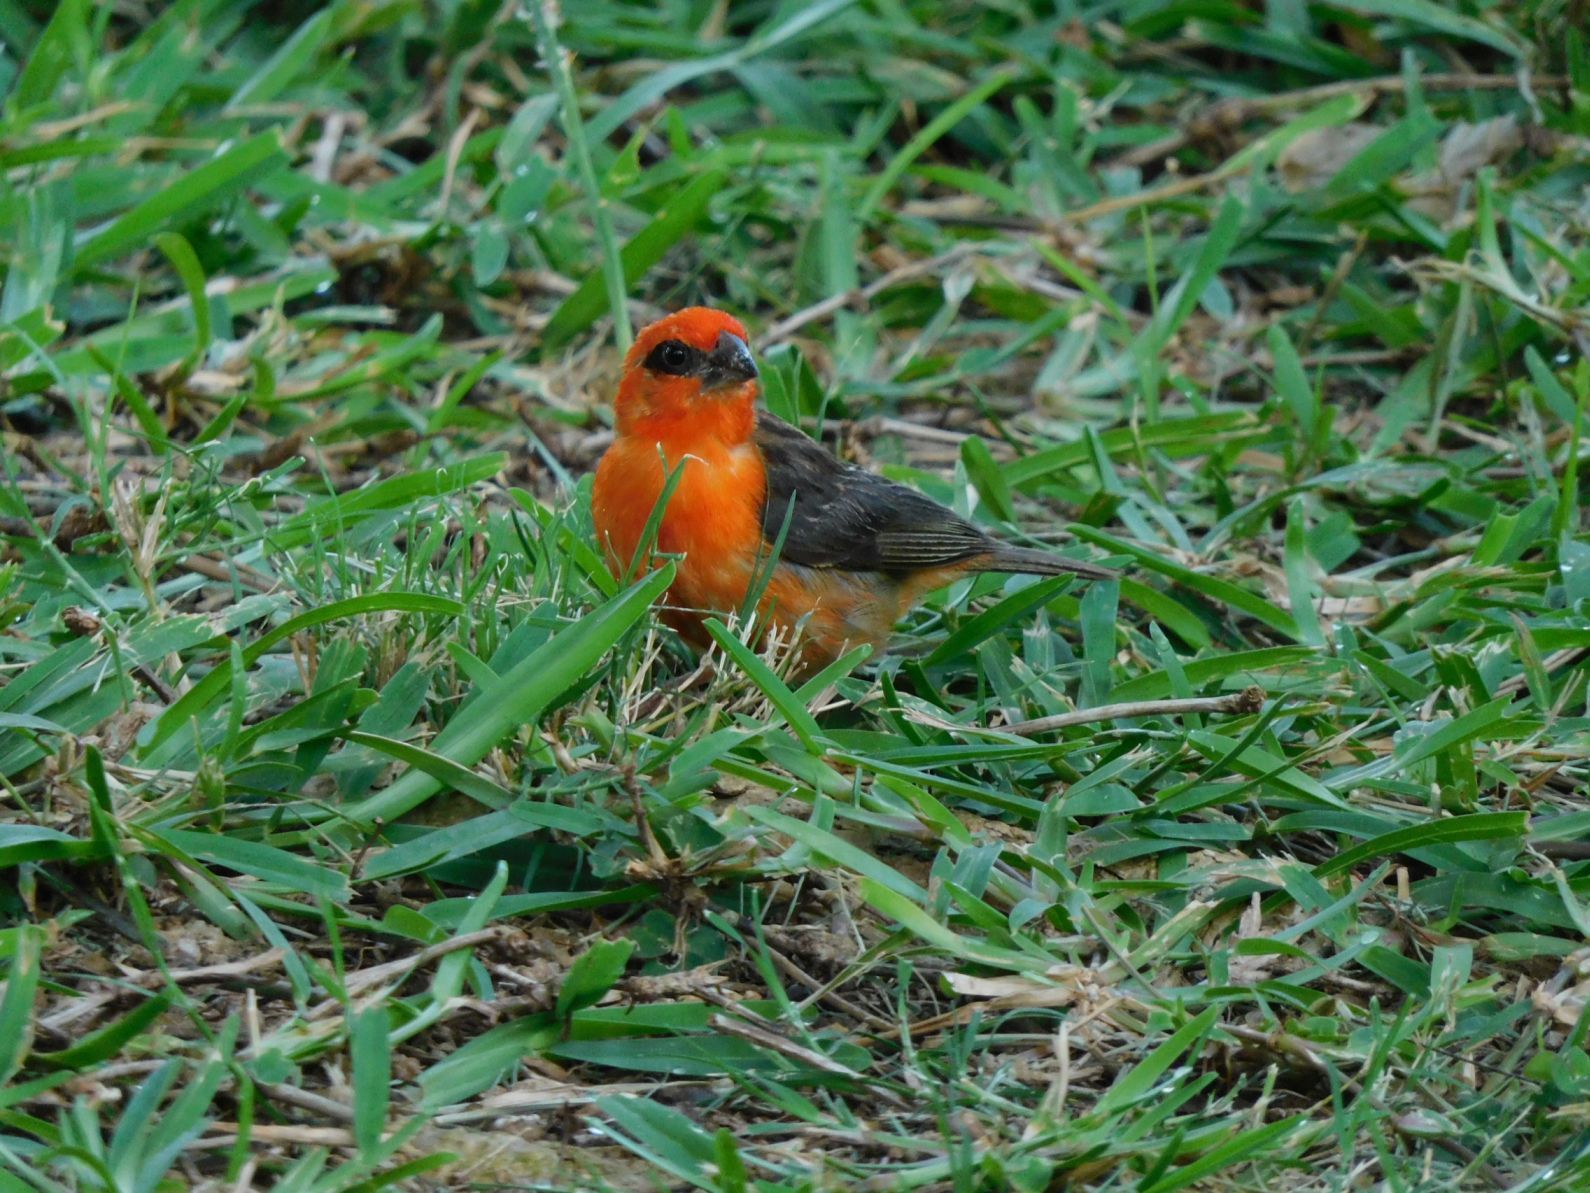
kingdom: Animalia
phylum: Chordata
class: Aves
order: Passeriformes
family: Ploceidae
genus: Foudia
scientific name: Foudia madagascariensis
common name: Red fody
